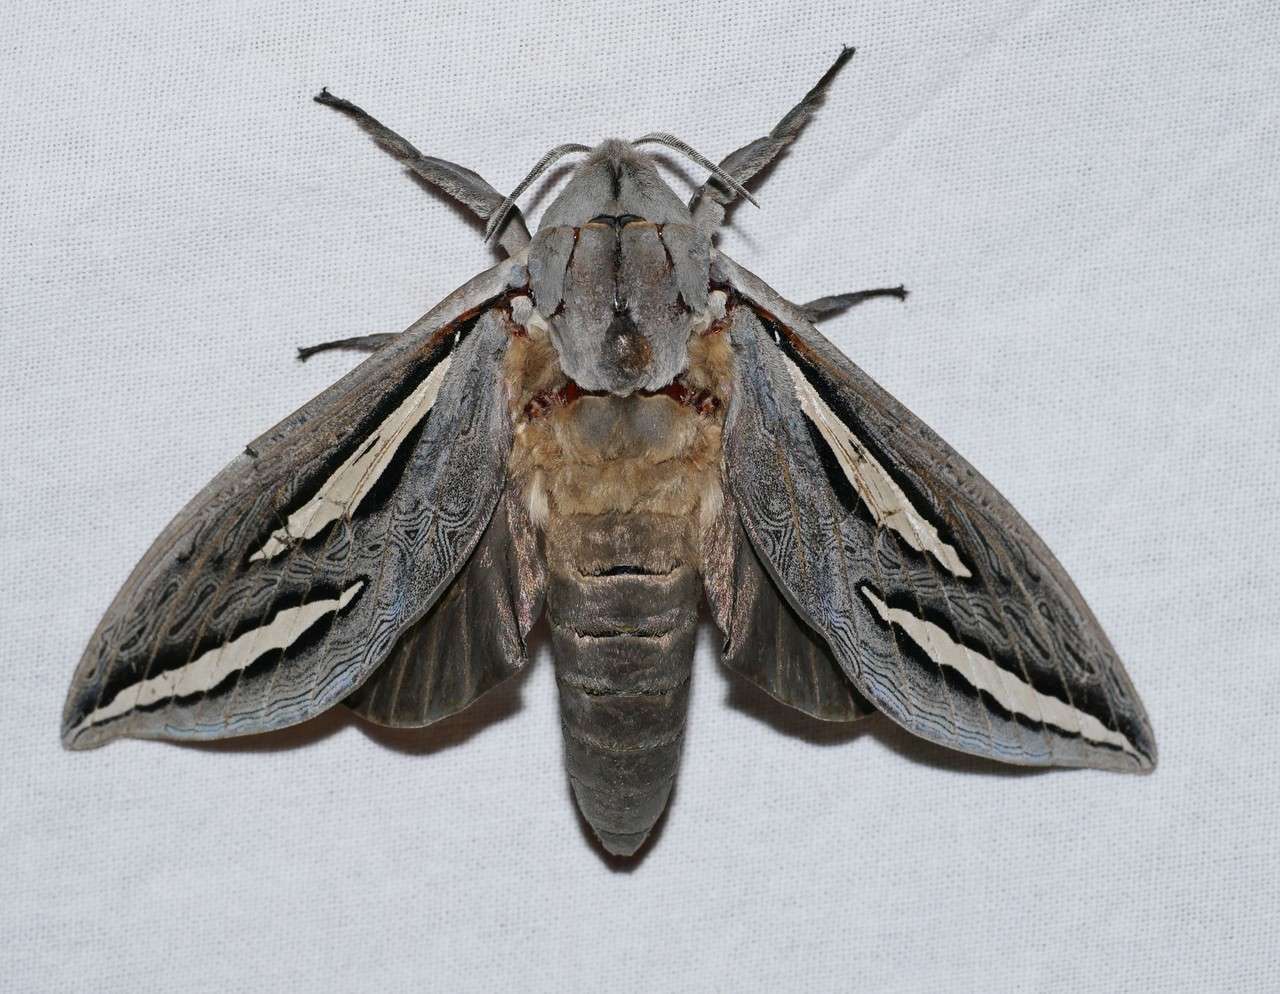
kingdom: Animalia
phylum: Arthropoda
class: Insecta
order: Lepidoptera
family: Hepialidae
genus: Abantiades
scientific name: Abantiades magnificus
